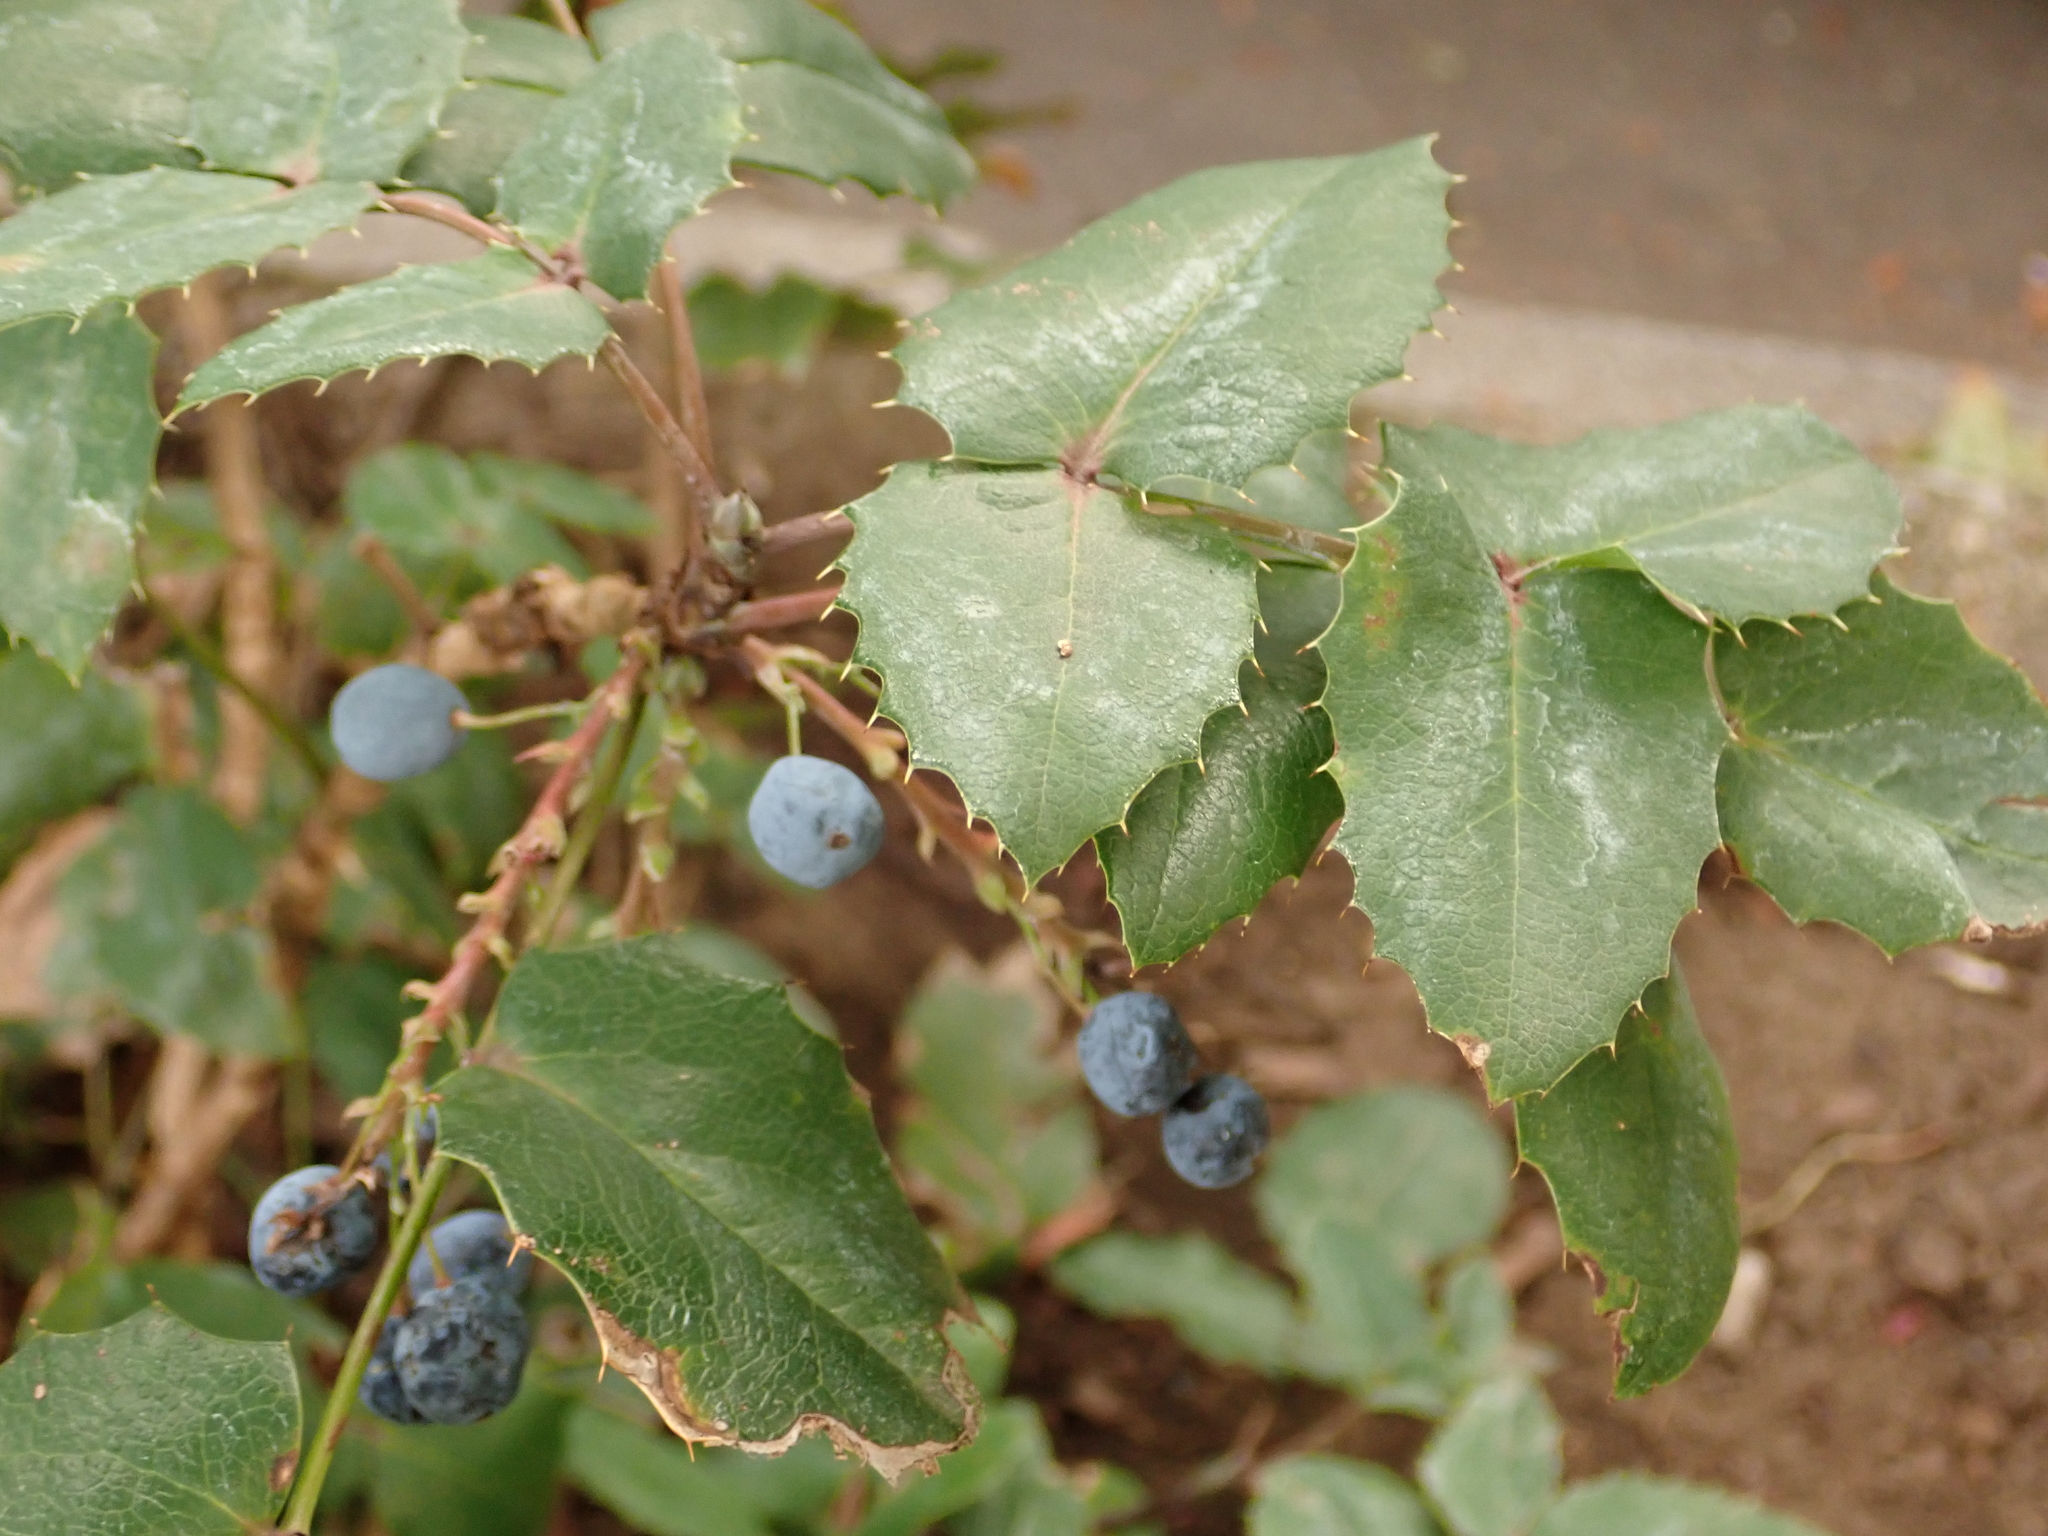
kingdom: Plantae
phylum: Tracheophyta
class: Magnoliopsida
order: Ranunculales
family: Berberidaceae
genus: Mahonia
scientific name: Mahonia aquifolium
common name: Oregon-grape
